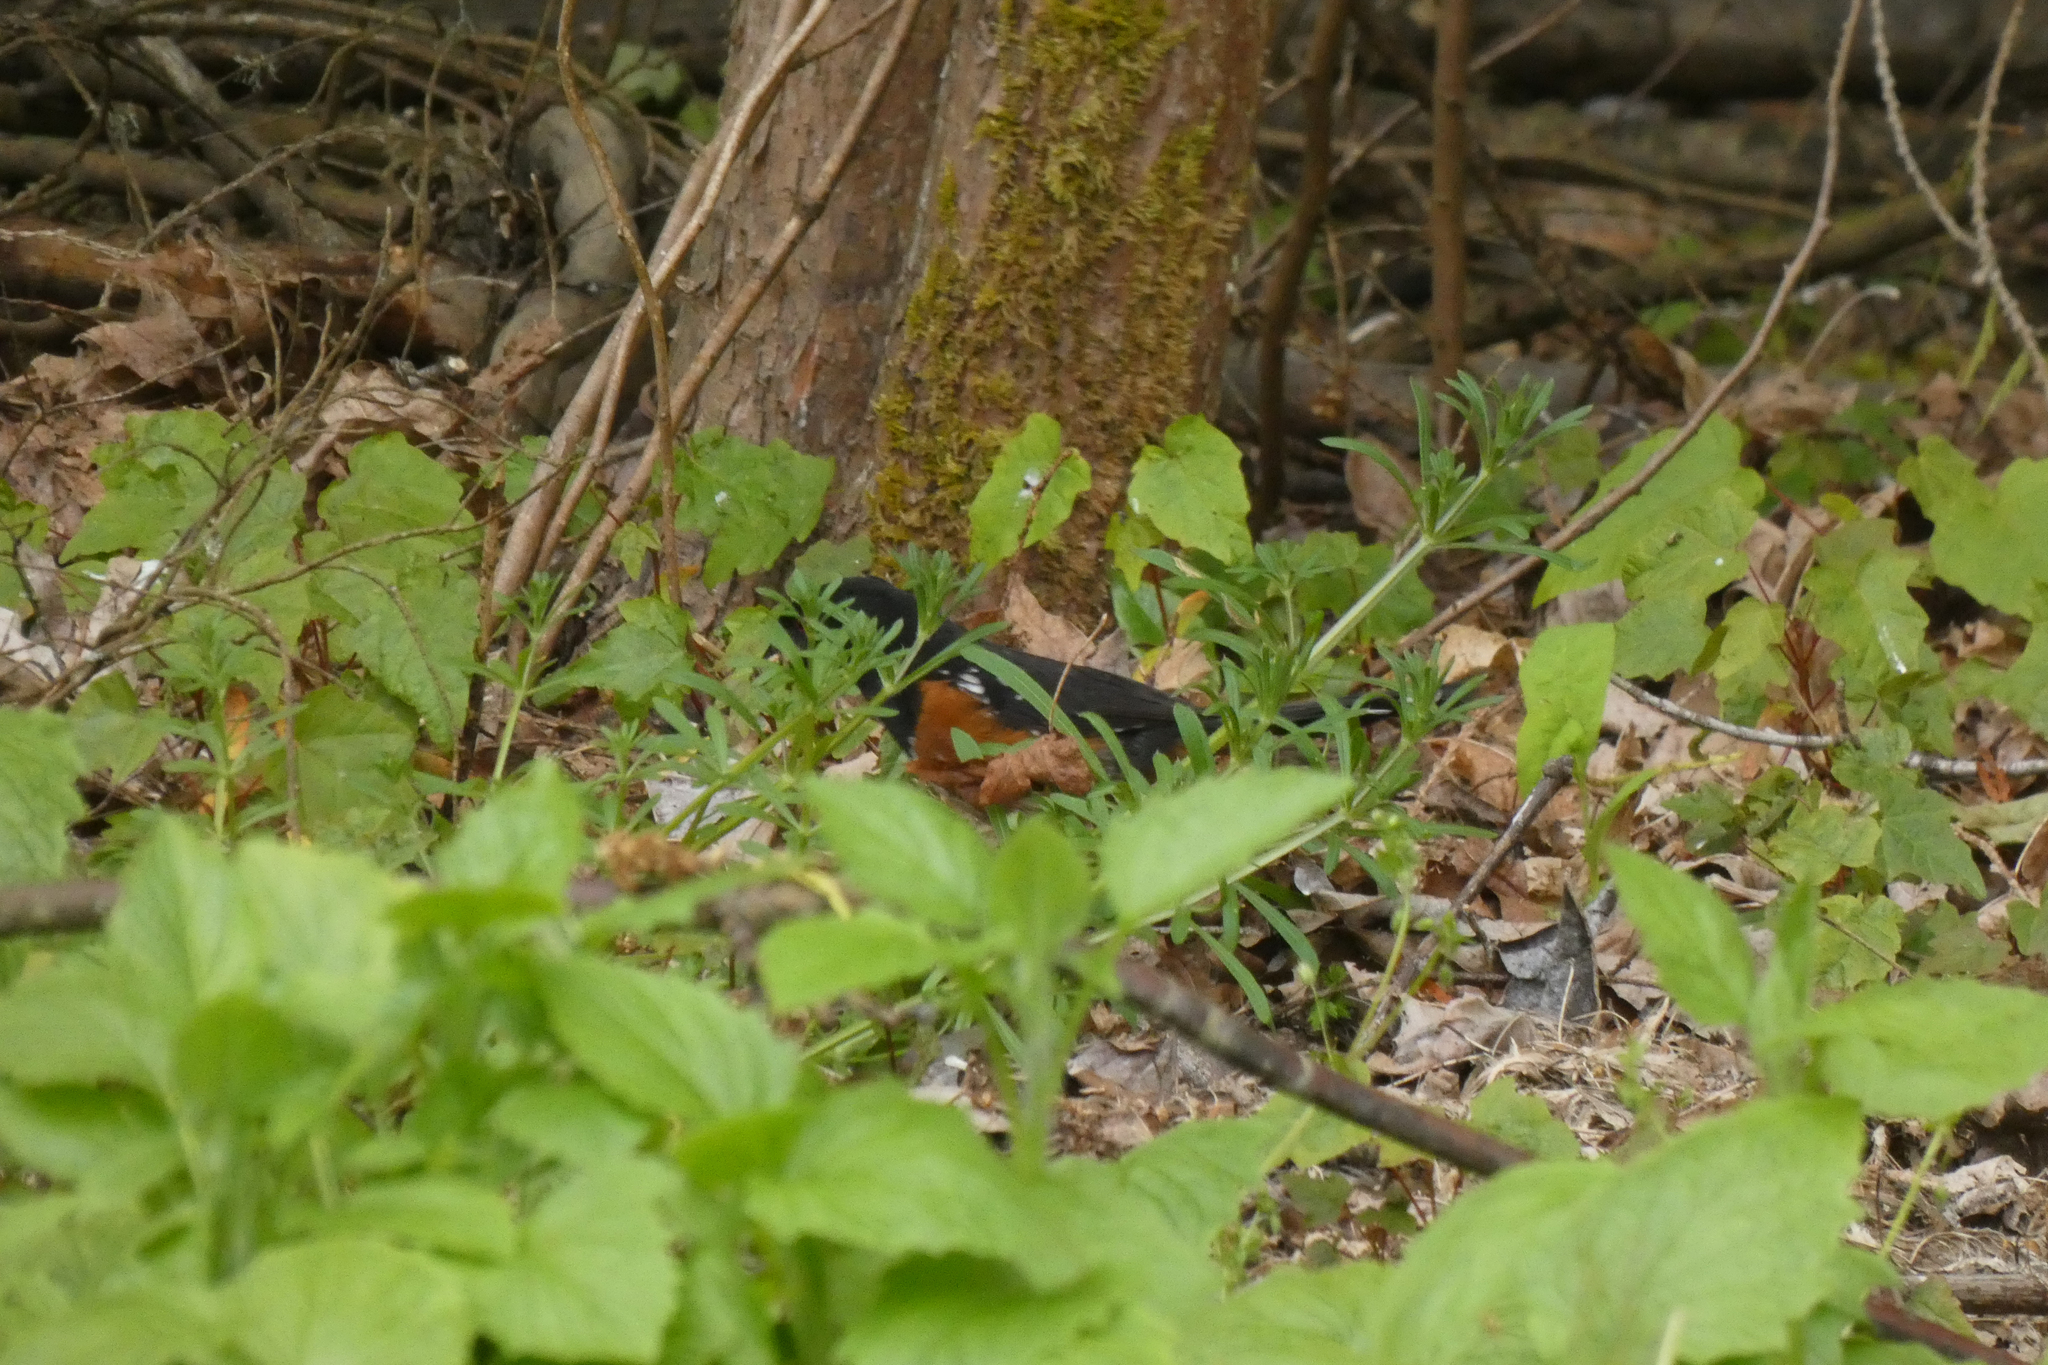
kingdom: Animalia
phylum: Chordata
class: Aves
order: Passeriformes
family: Passerellidae
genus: Pipilo
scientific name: Pipilo maculatus
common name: Spotted towhee
